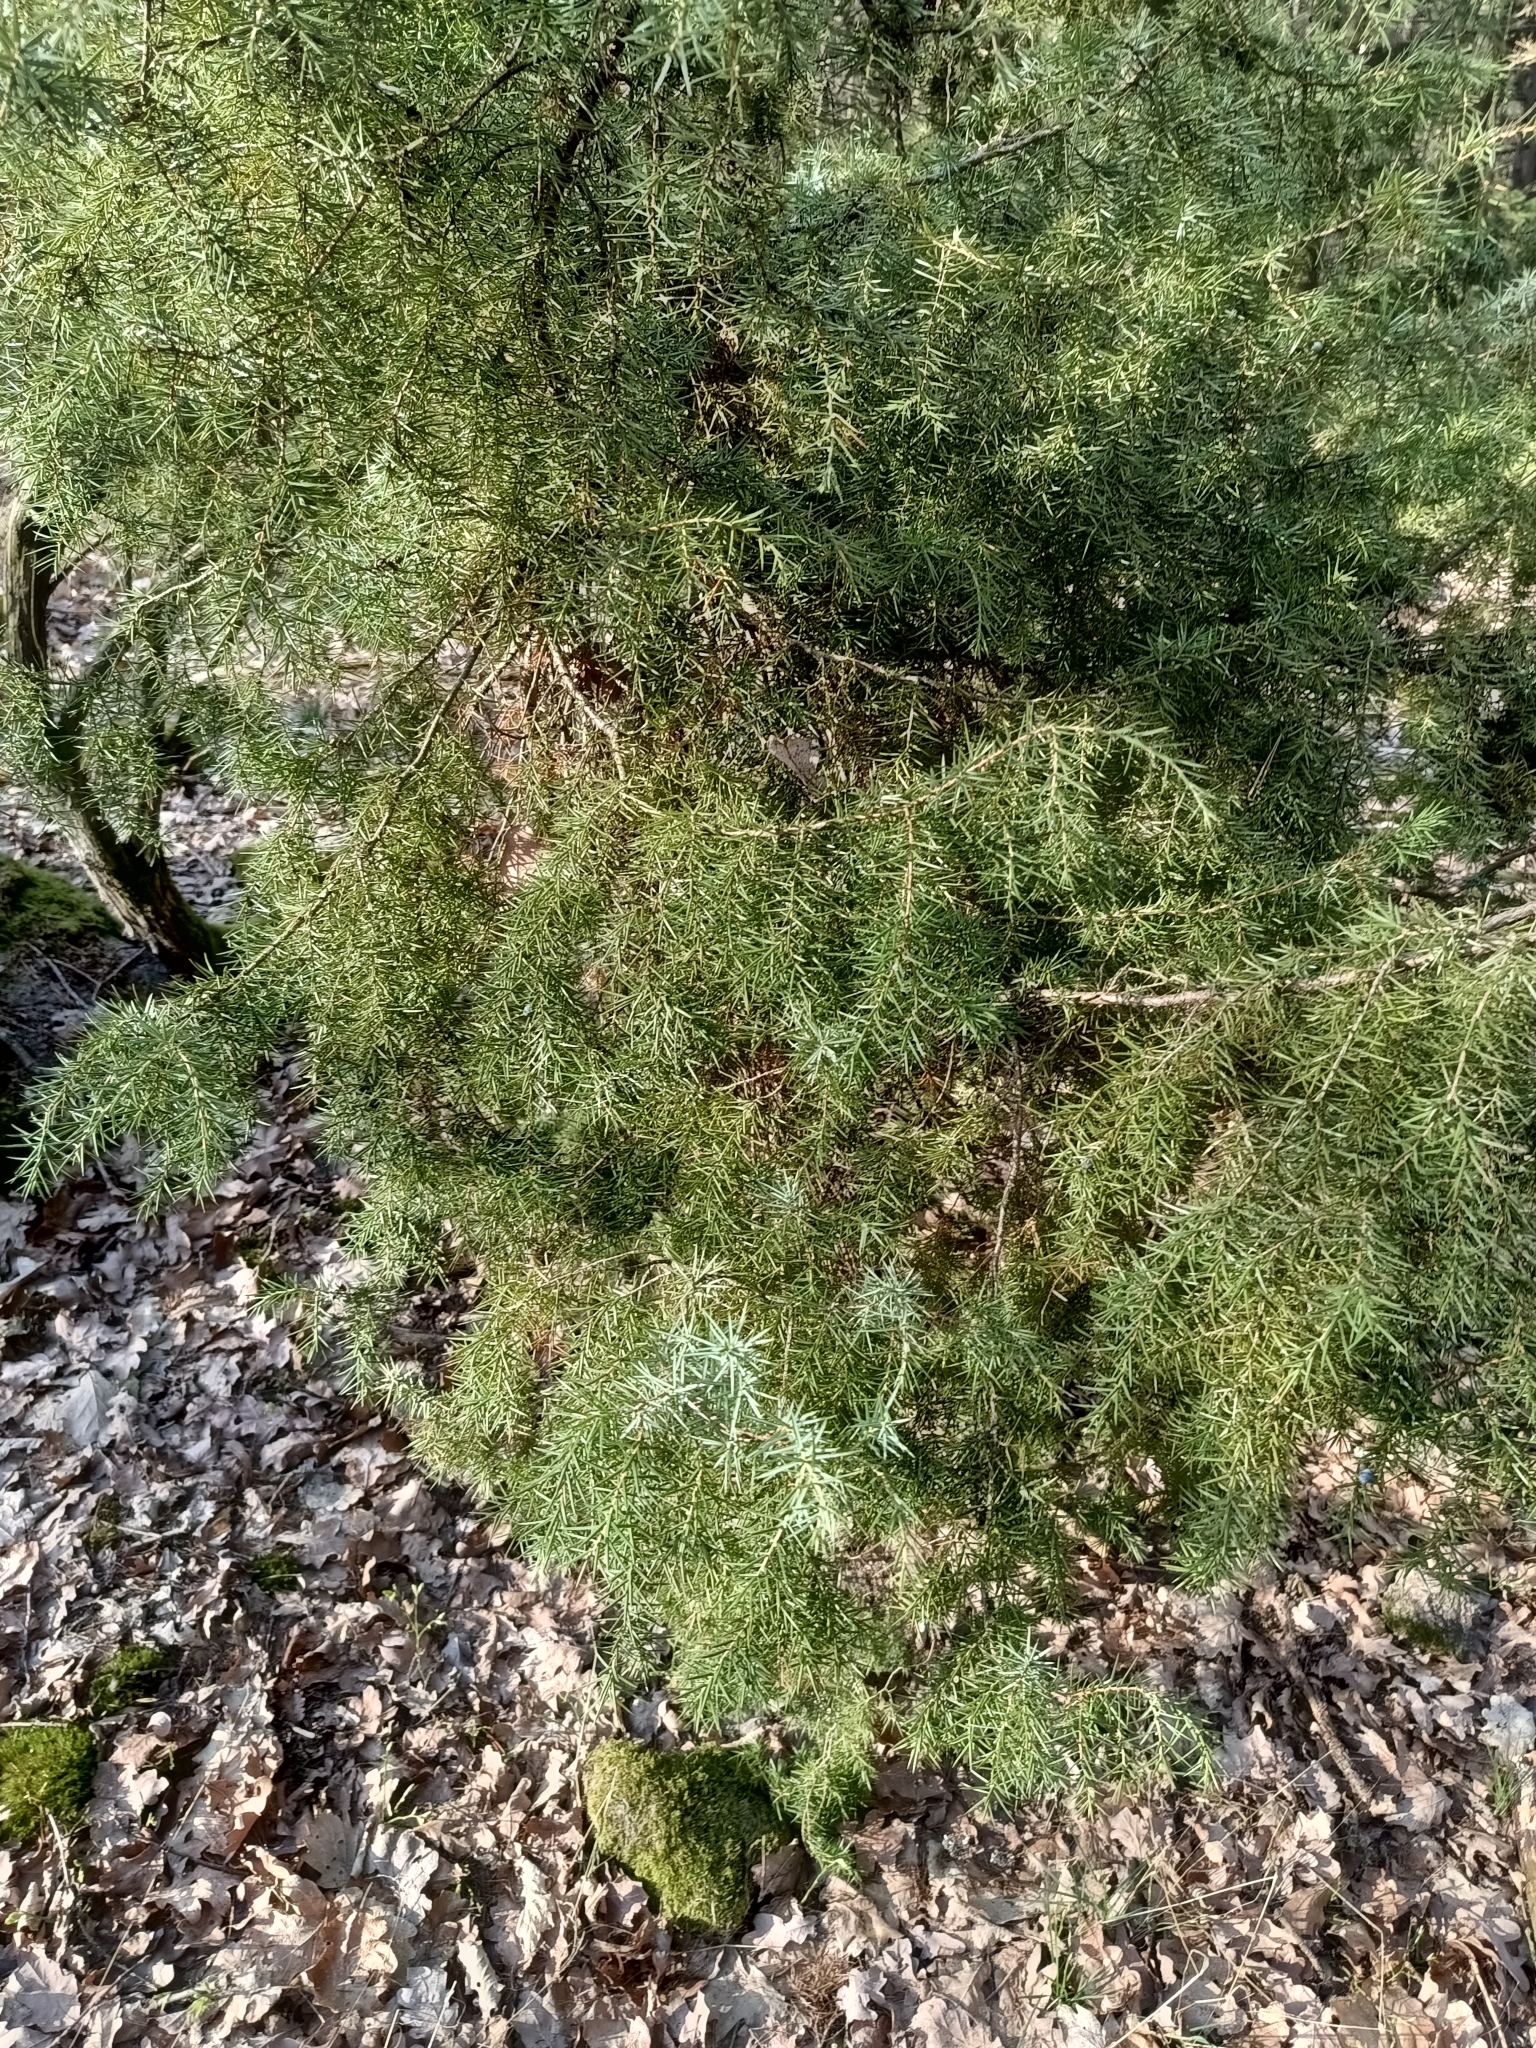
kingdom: Plantae
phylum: Tracheophyta
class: Pinopsida
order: Pinales
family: Cupressaceae
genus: Juniperus
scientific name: Juniperus communis
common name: Common juniper
